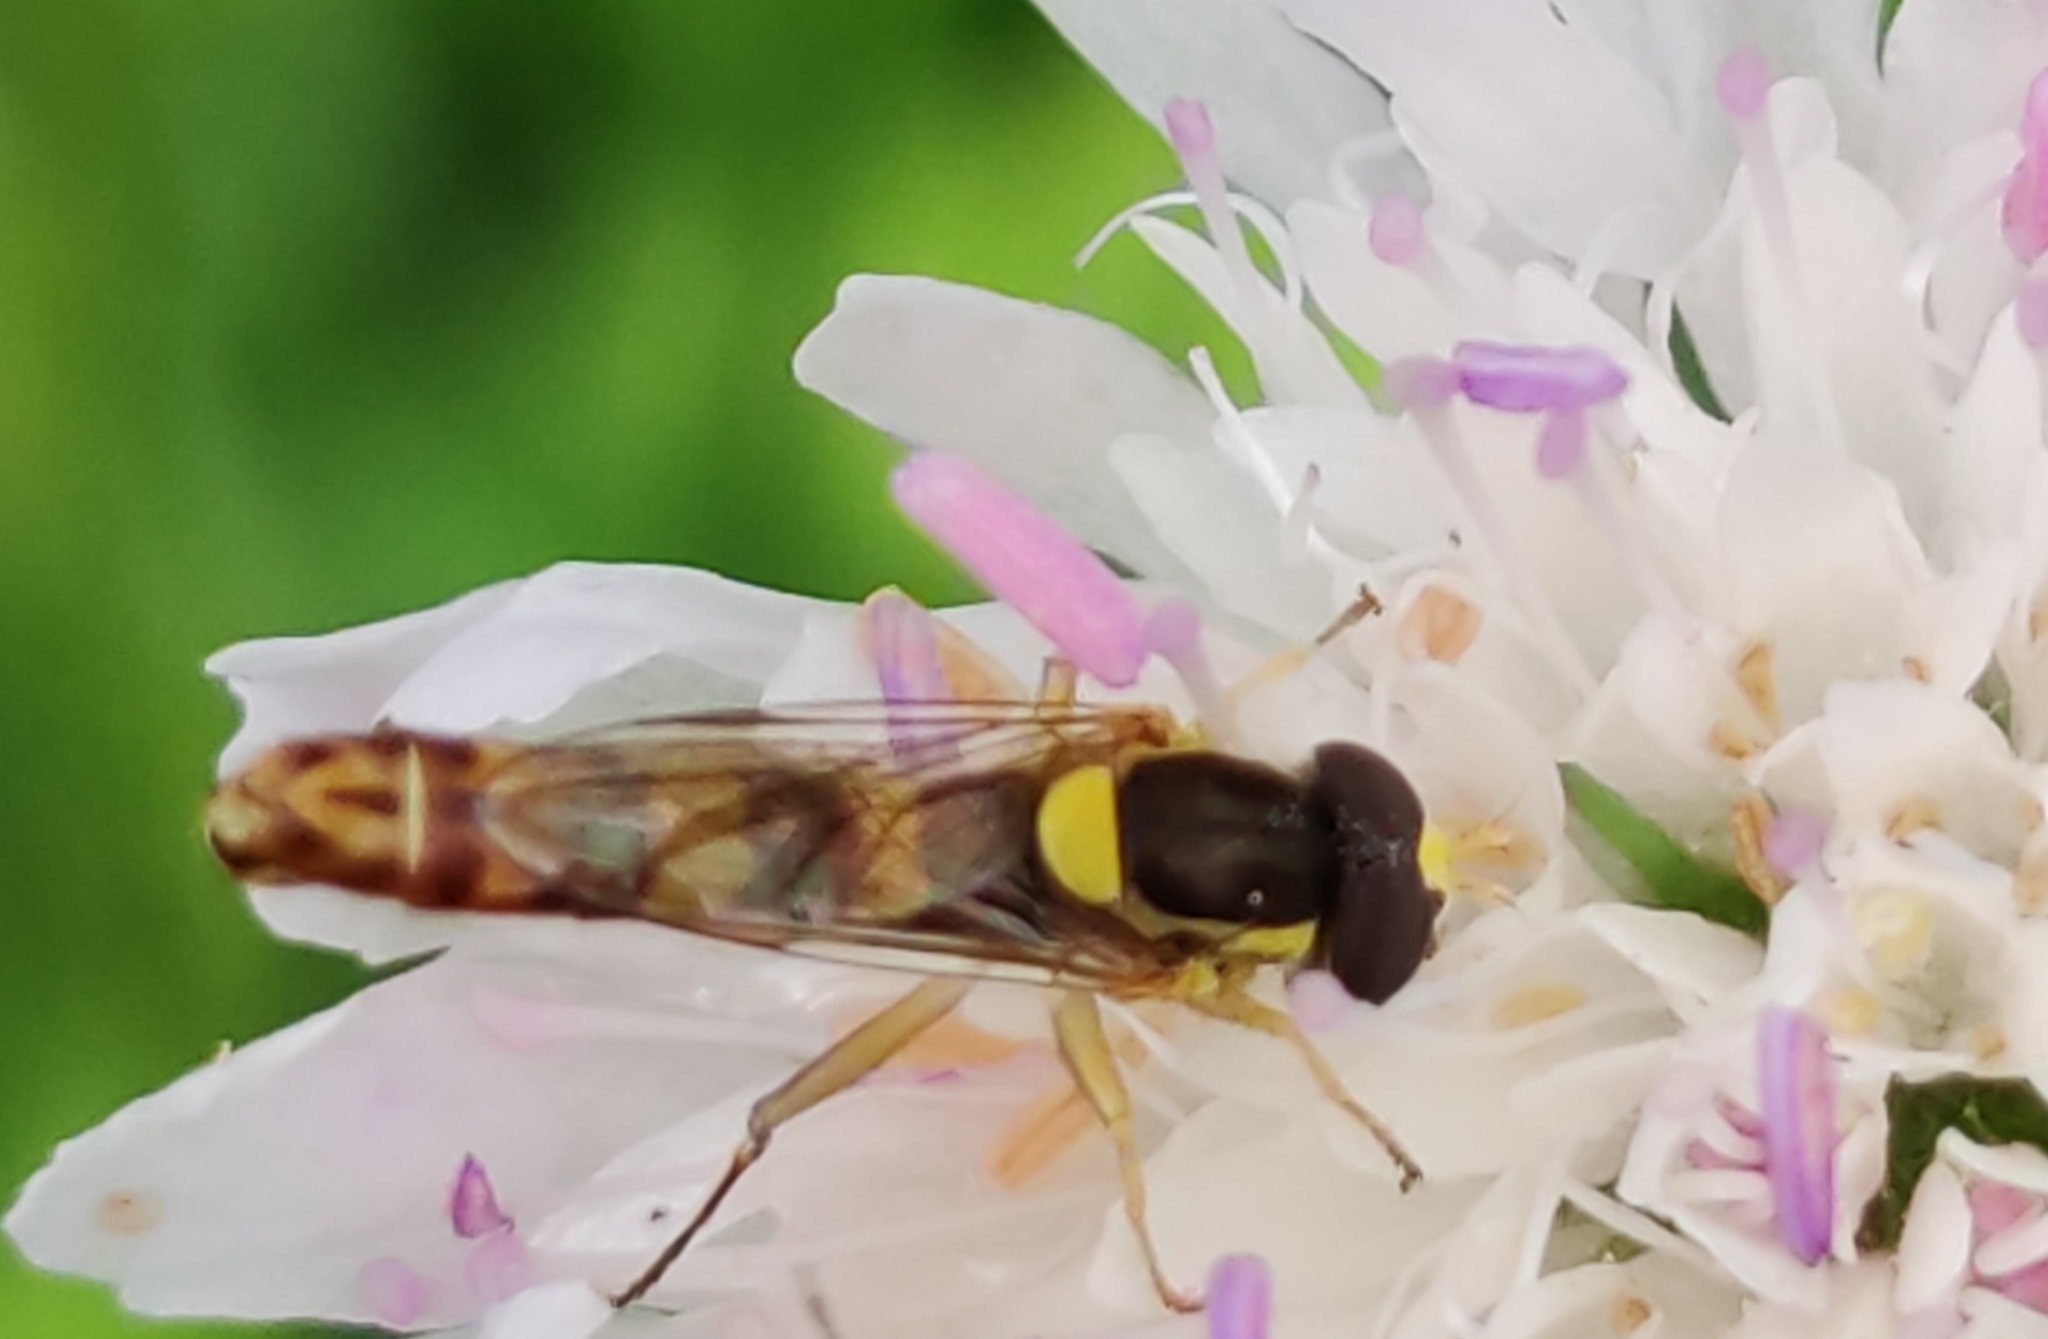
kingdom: Animalia
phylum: Arthropoda
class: Insecta
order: Diptera
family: Syrphidae
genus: Sphaerophoria
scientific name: Sphaerophoria scripta
